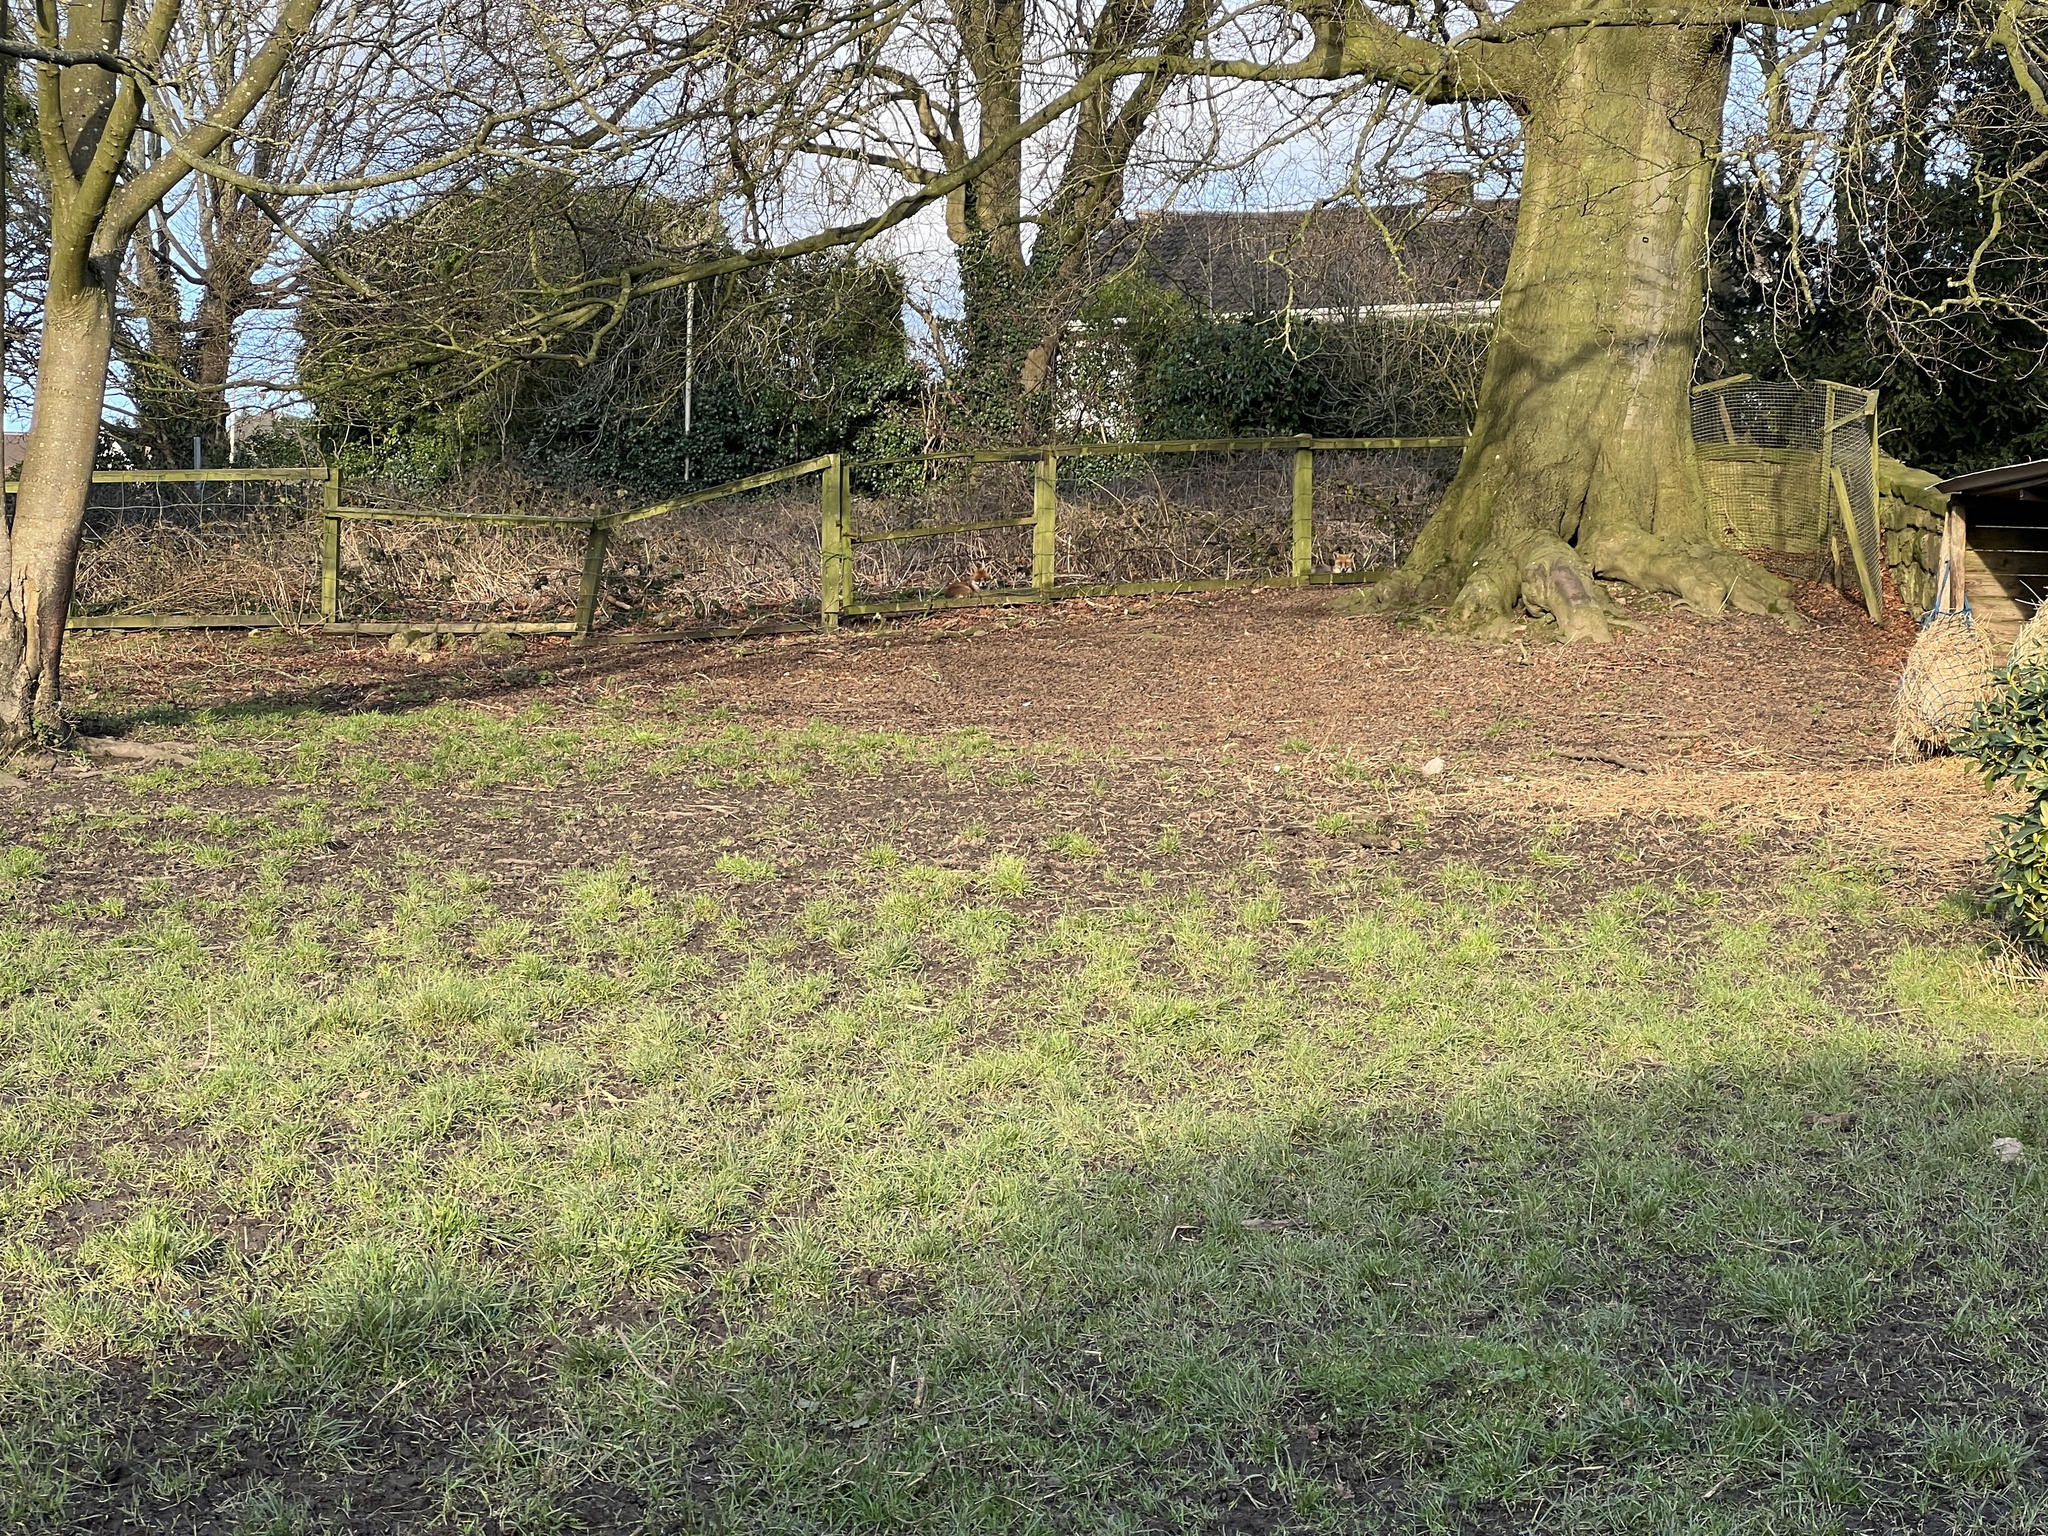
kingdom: Animalia
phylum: Chordata
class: Mammalia
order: Carnivora
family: Canidae
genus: Vulpes
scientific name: Vulpes vulpes
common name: Red fox
